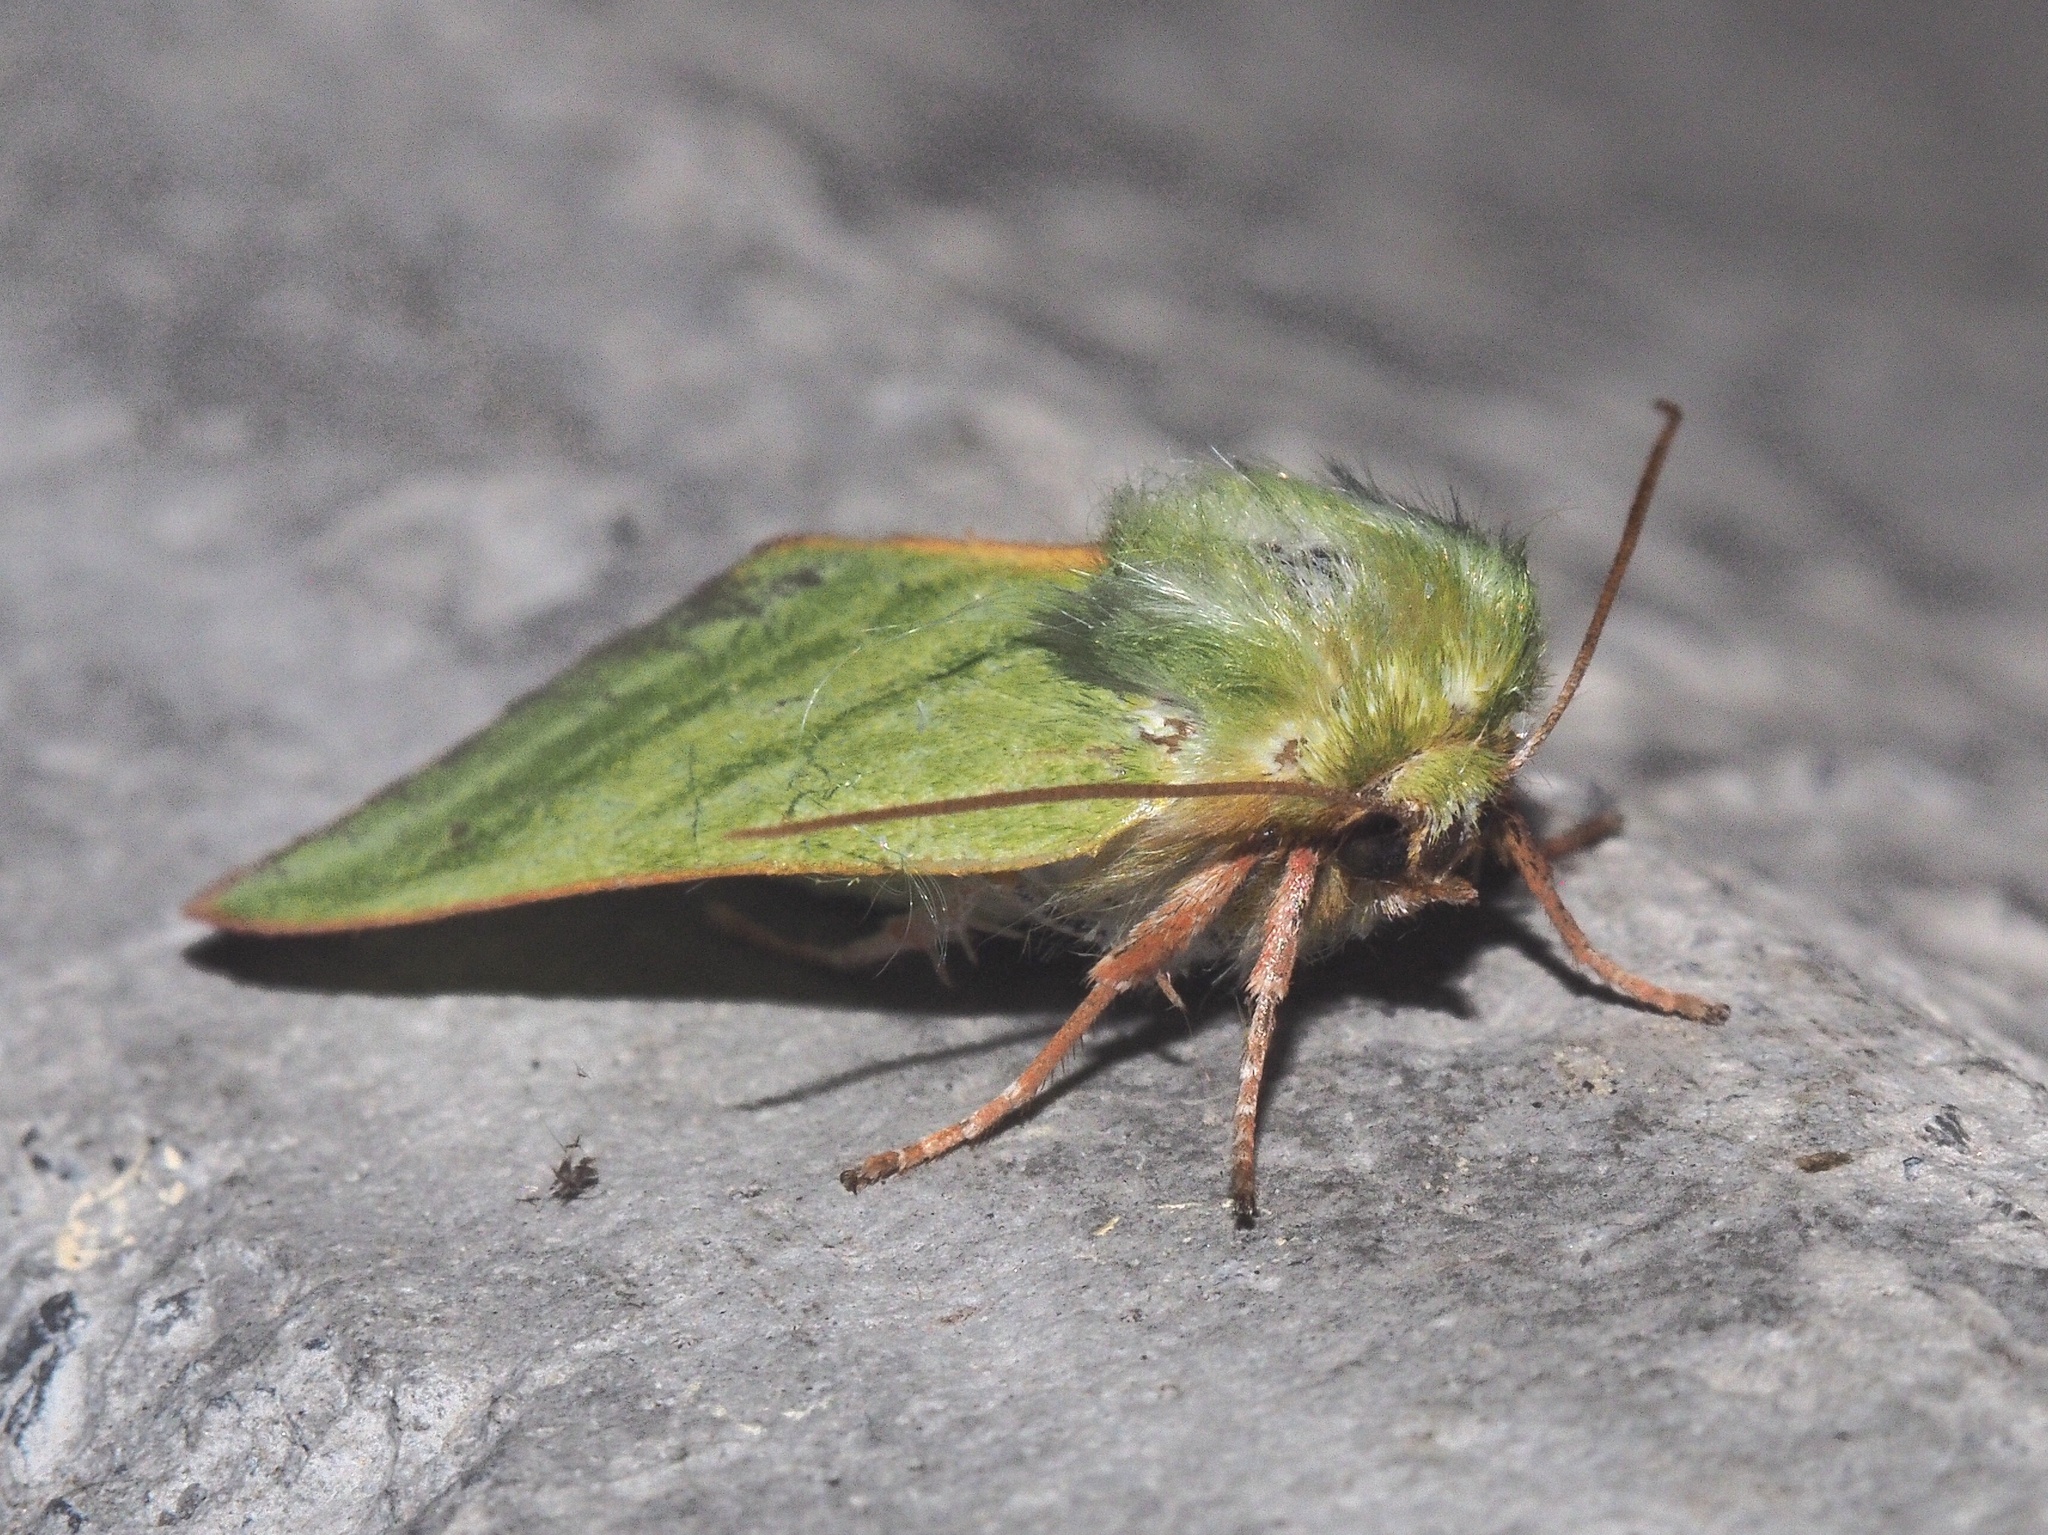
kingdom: Animalia
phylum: Arthropoda
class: Insecta
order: Lepidoptera
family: Nolidae
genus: Pseudoips
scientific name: Pseudoips prasinana
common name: Green silver-lines
